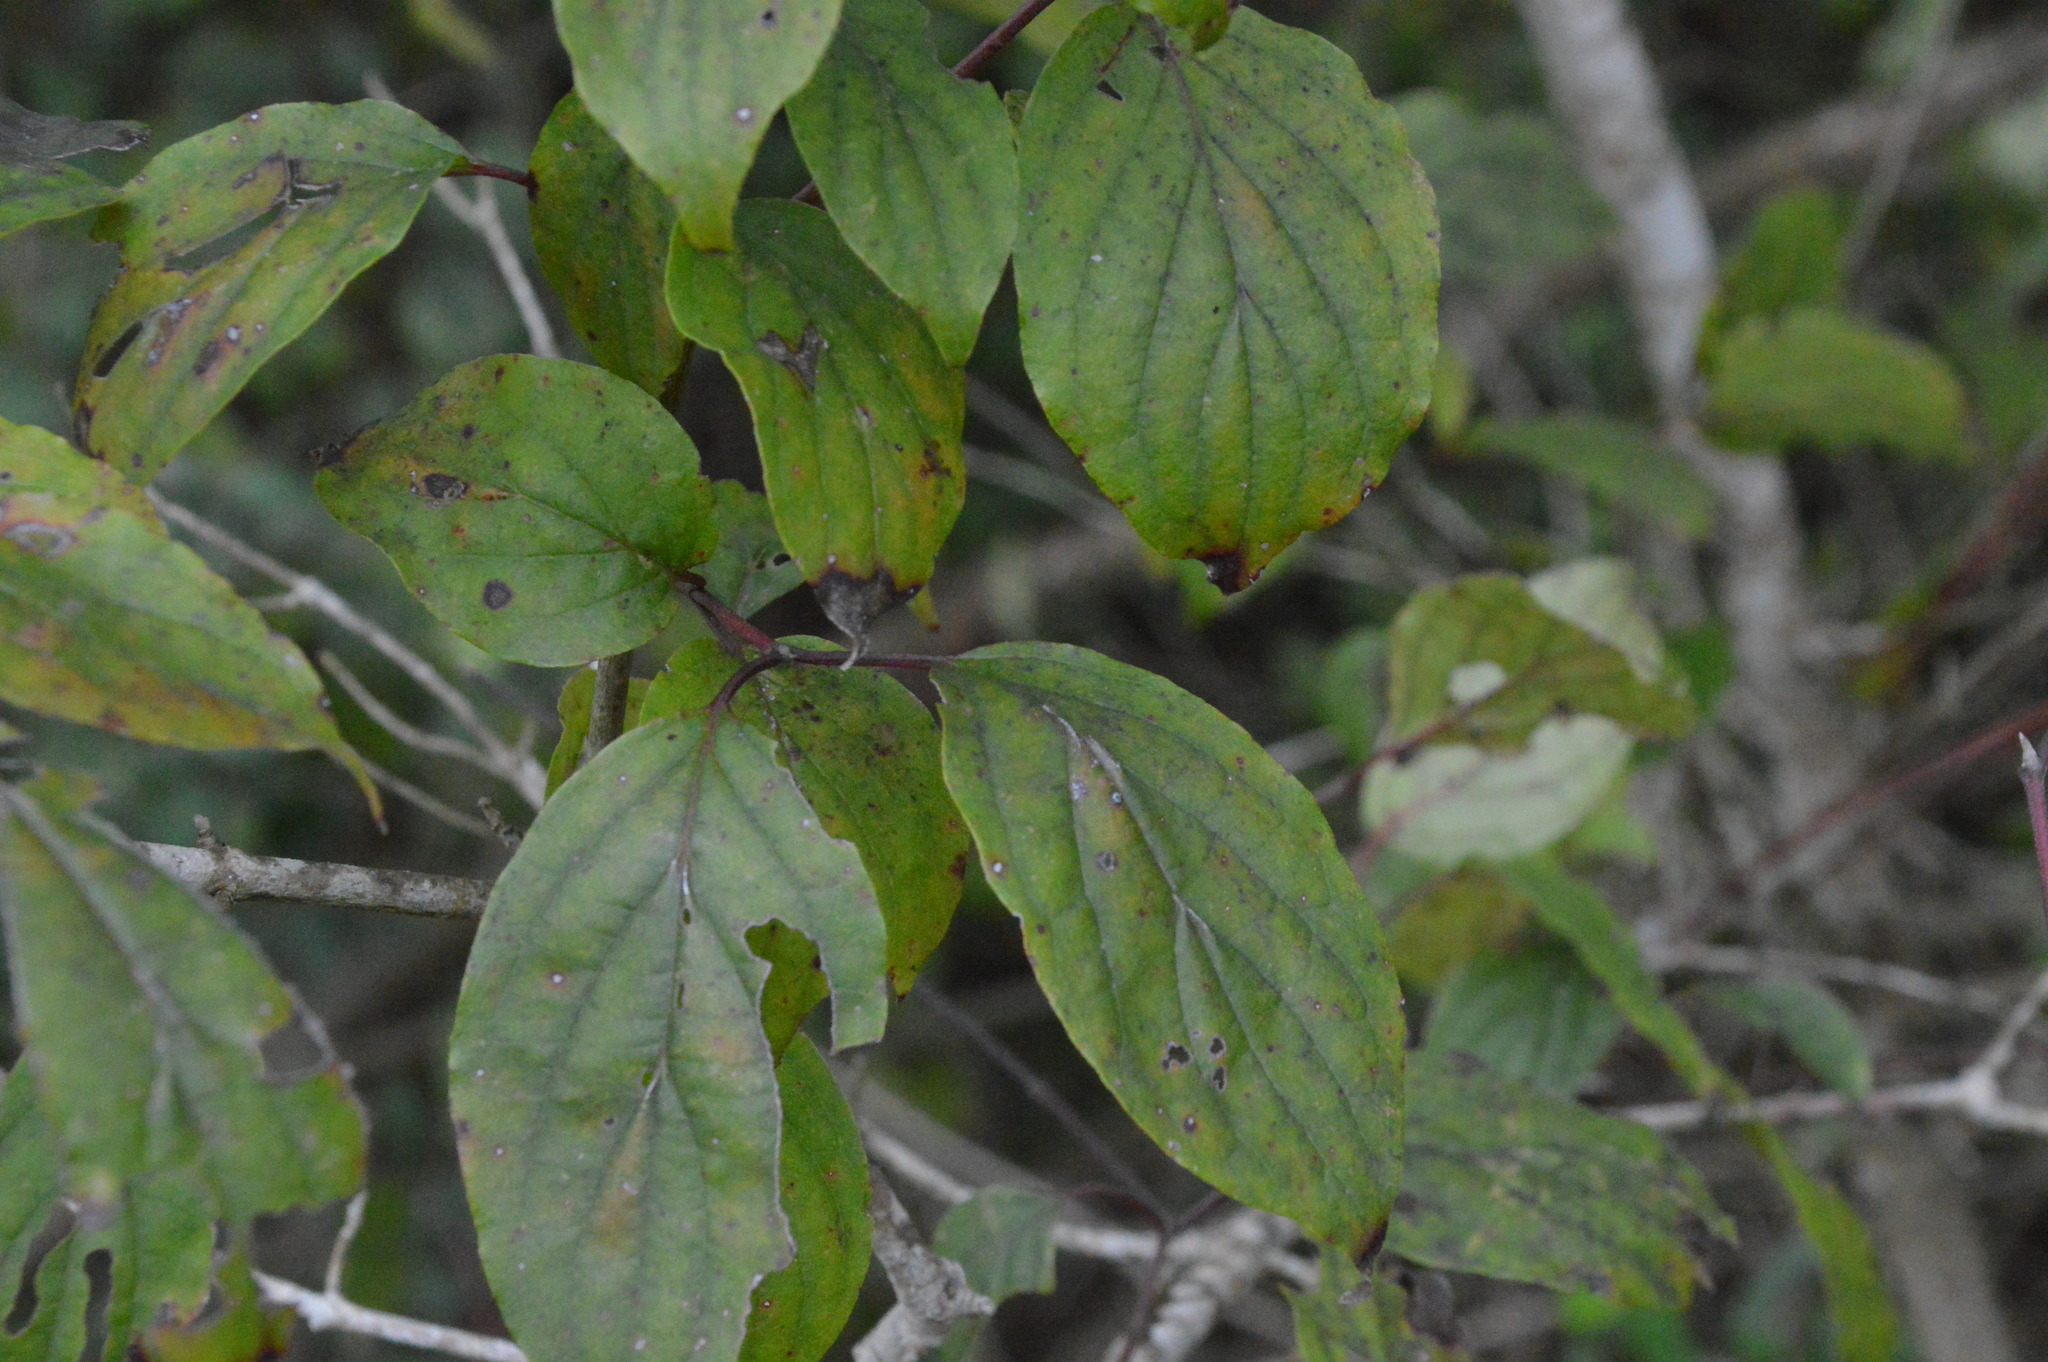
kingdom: Plantae
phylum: Tracheophyta
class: Magnoliopsida
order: Cornales
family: Cornaceae
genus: Cornus
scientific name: Cornus drummondii
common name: Rough-leaf dogwood
